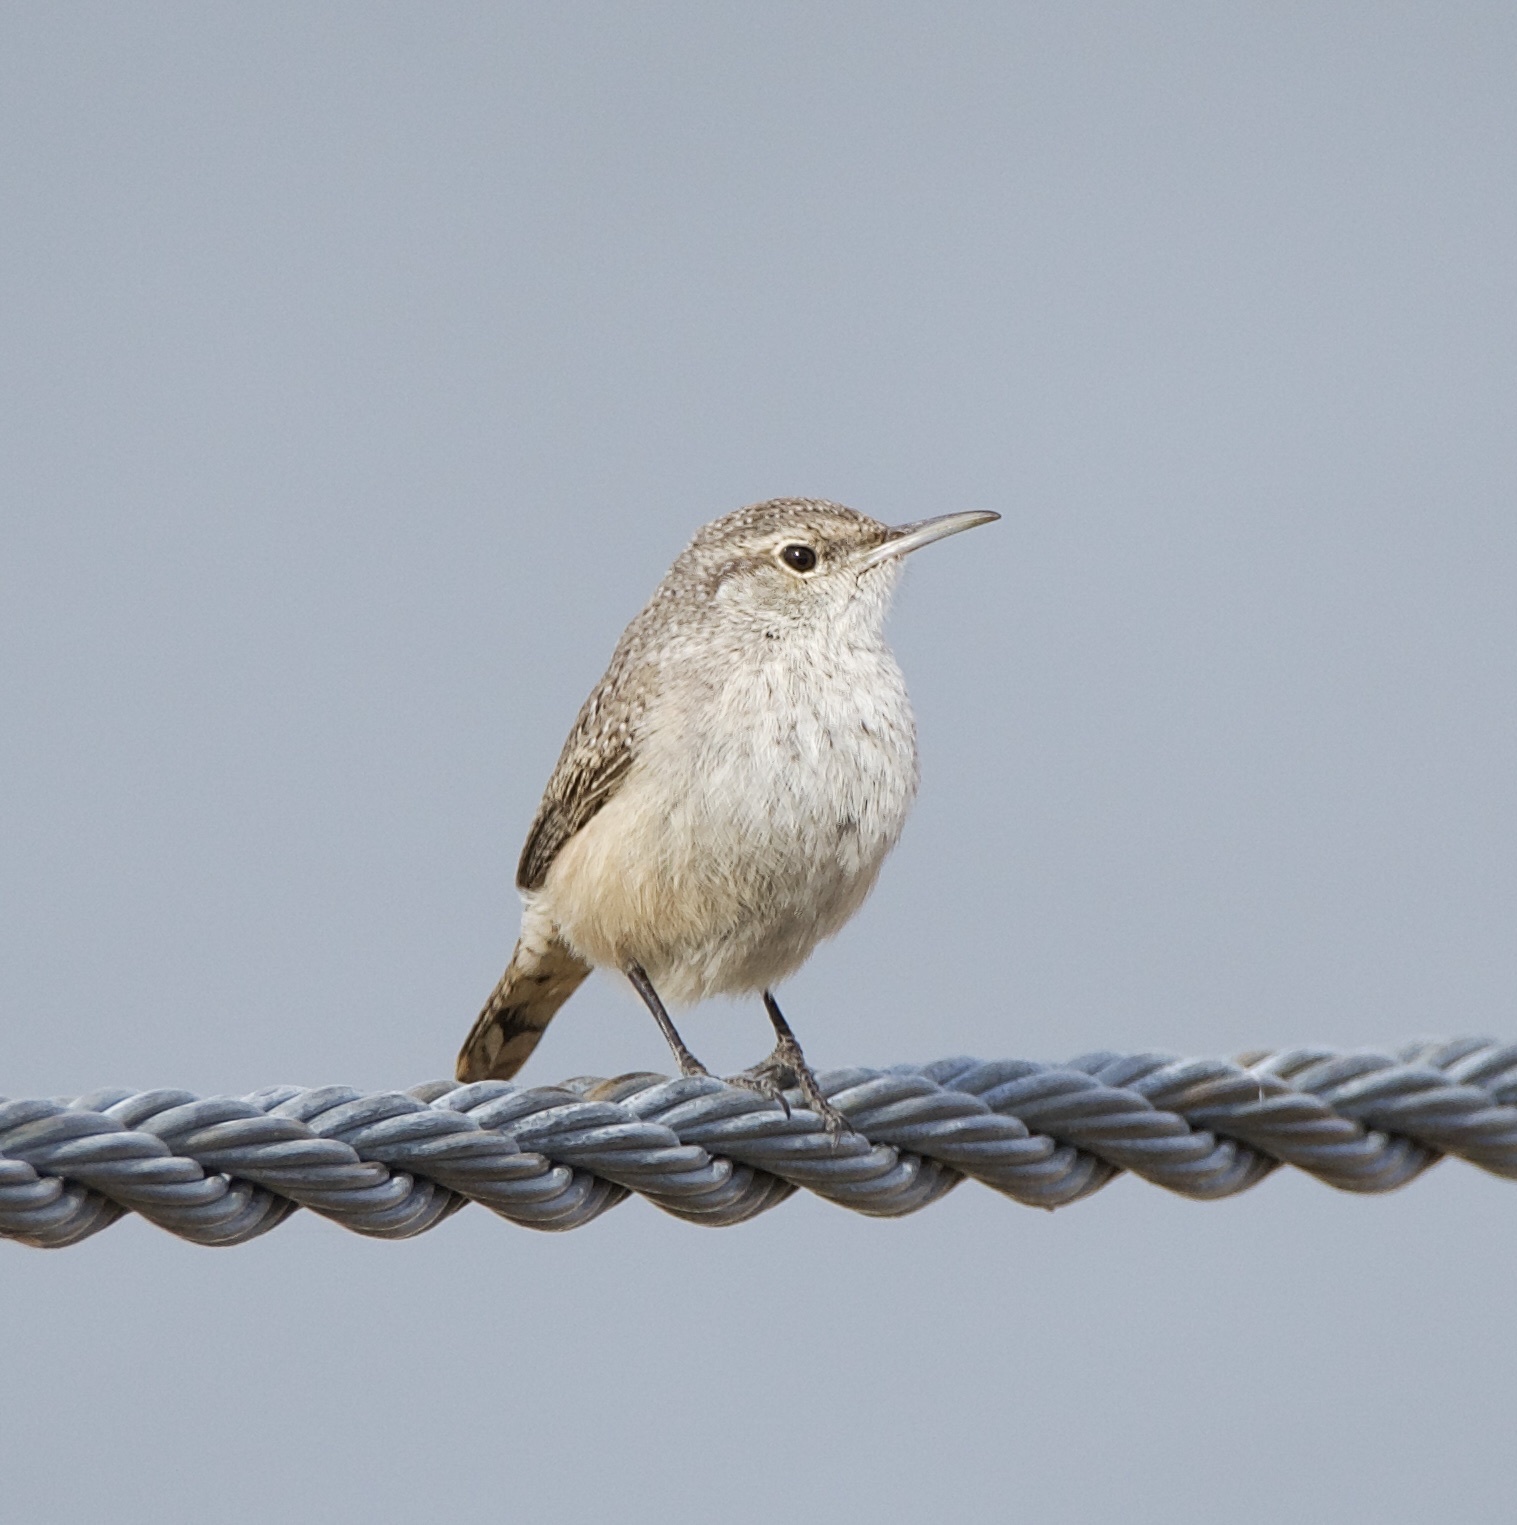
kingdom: Animalia
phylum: Chordata
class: Aves
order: Passeriformes
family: Troglodytidae
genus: Salpinctes
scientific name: Salpinctes obsoletus
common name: Rock wren
